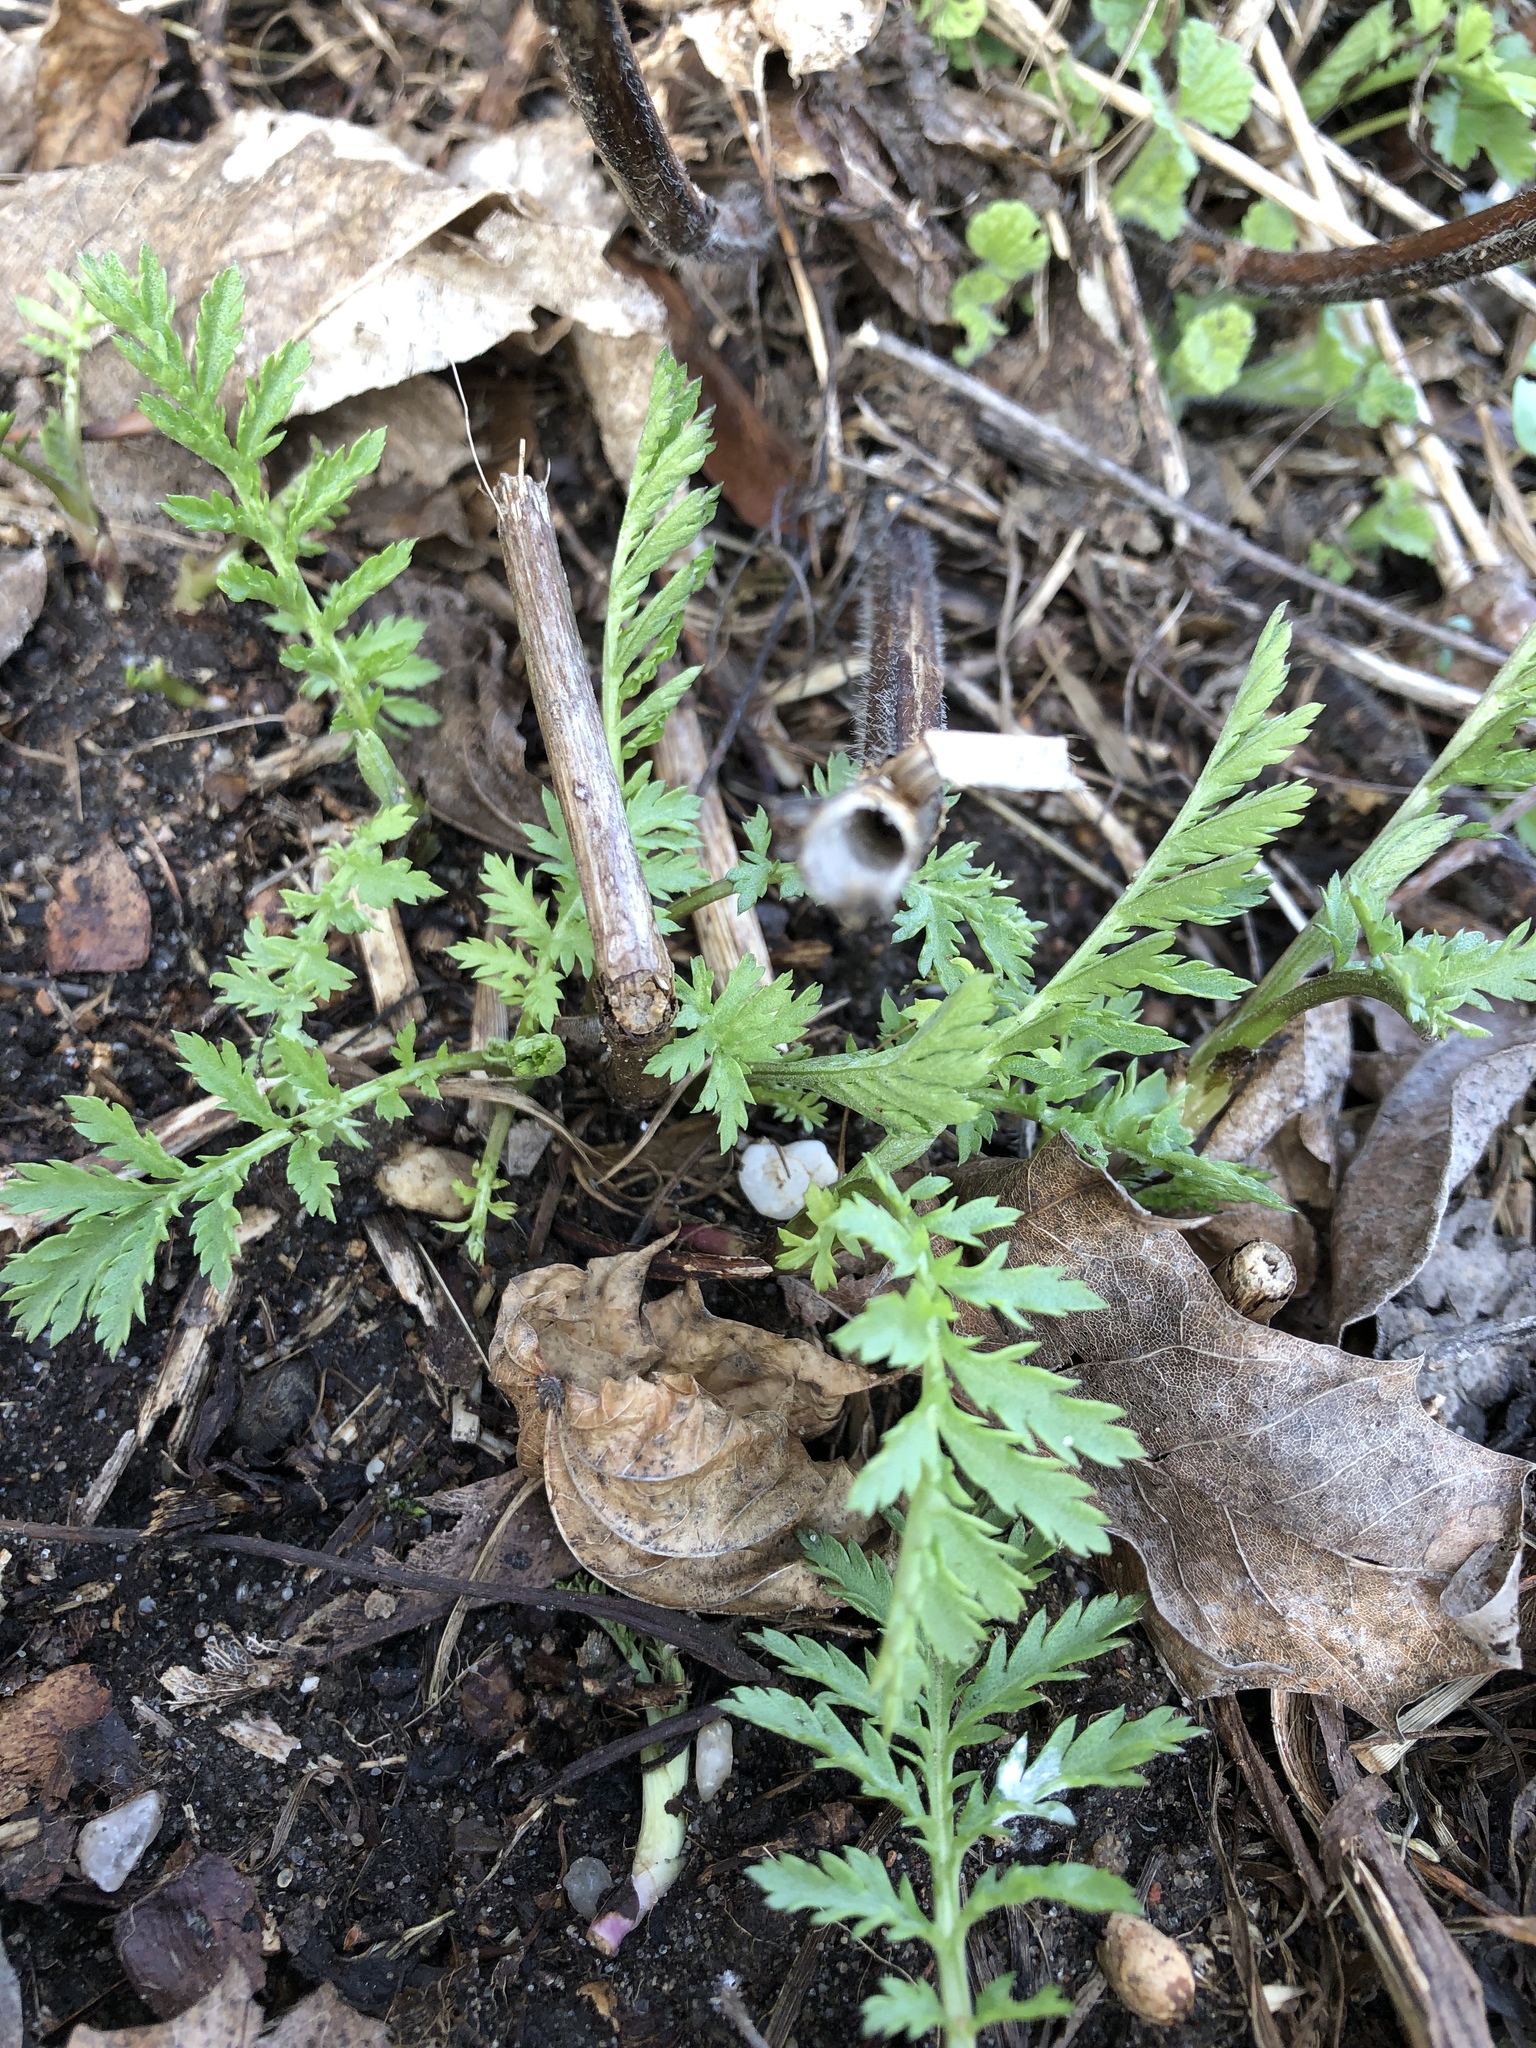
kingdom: Plantae
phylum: Tracheophyta
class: Magnoliopsida
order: Geraniales
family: Geraniaceae
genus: Erodium
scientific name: Erodium cicutarium
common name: Common stork's-bill
